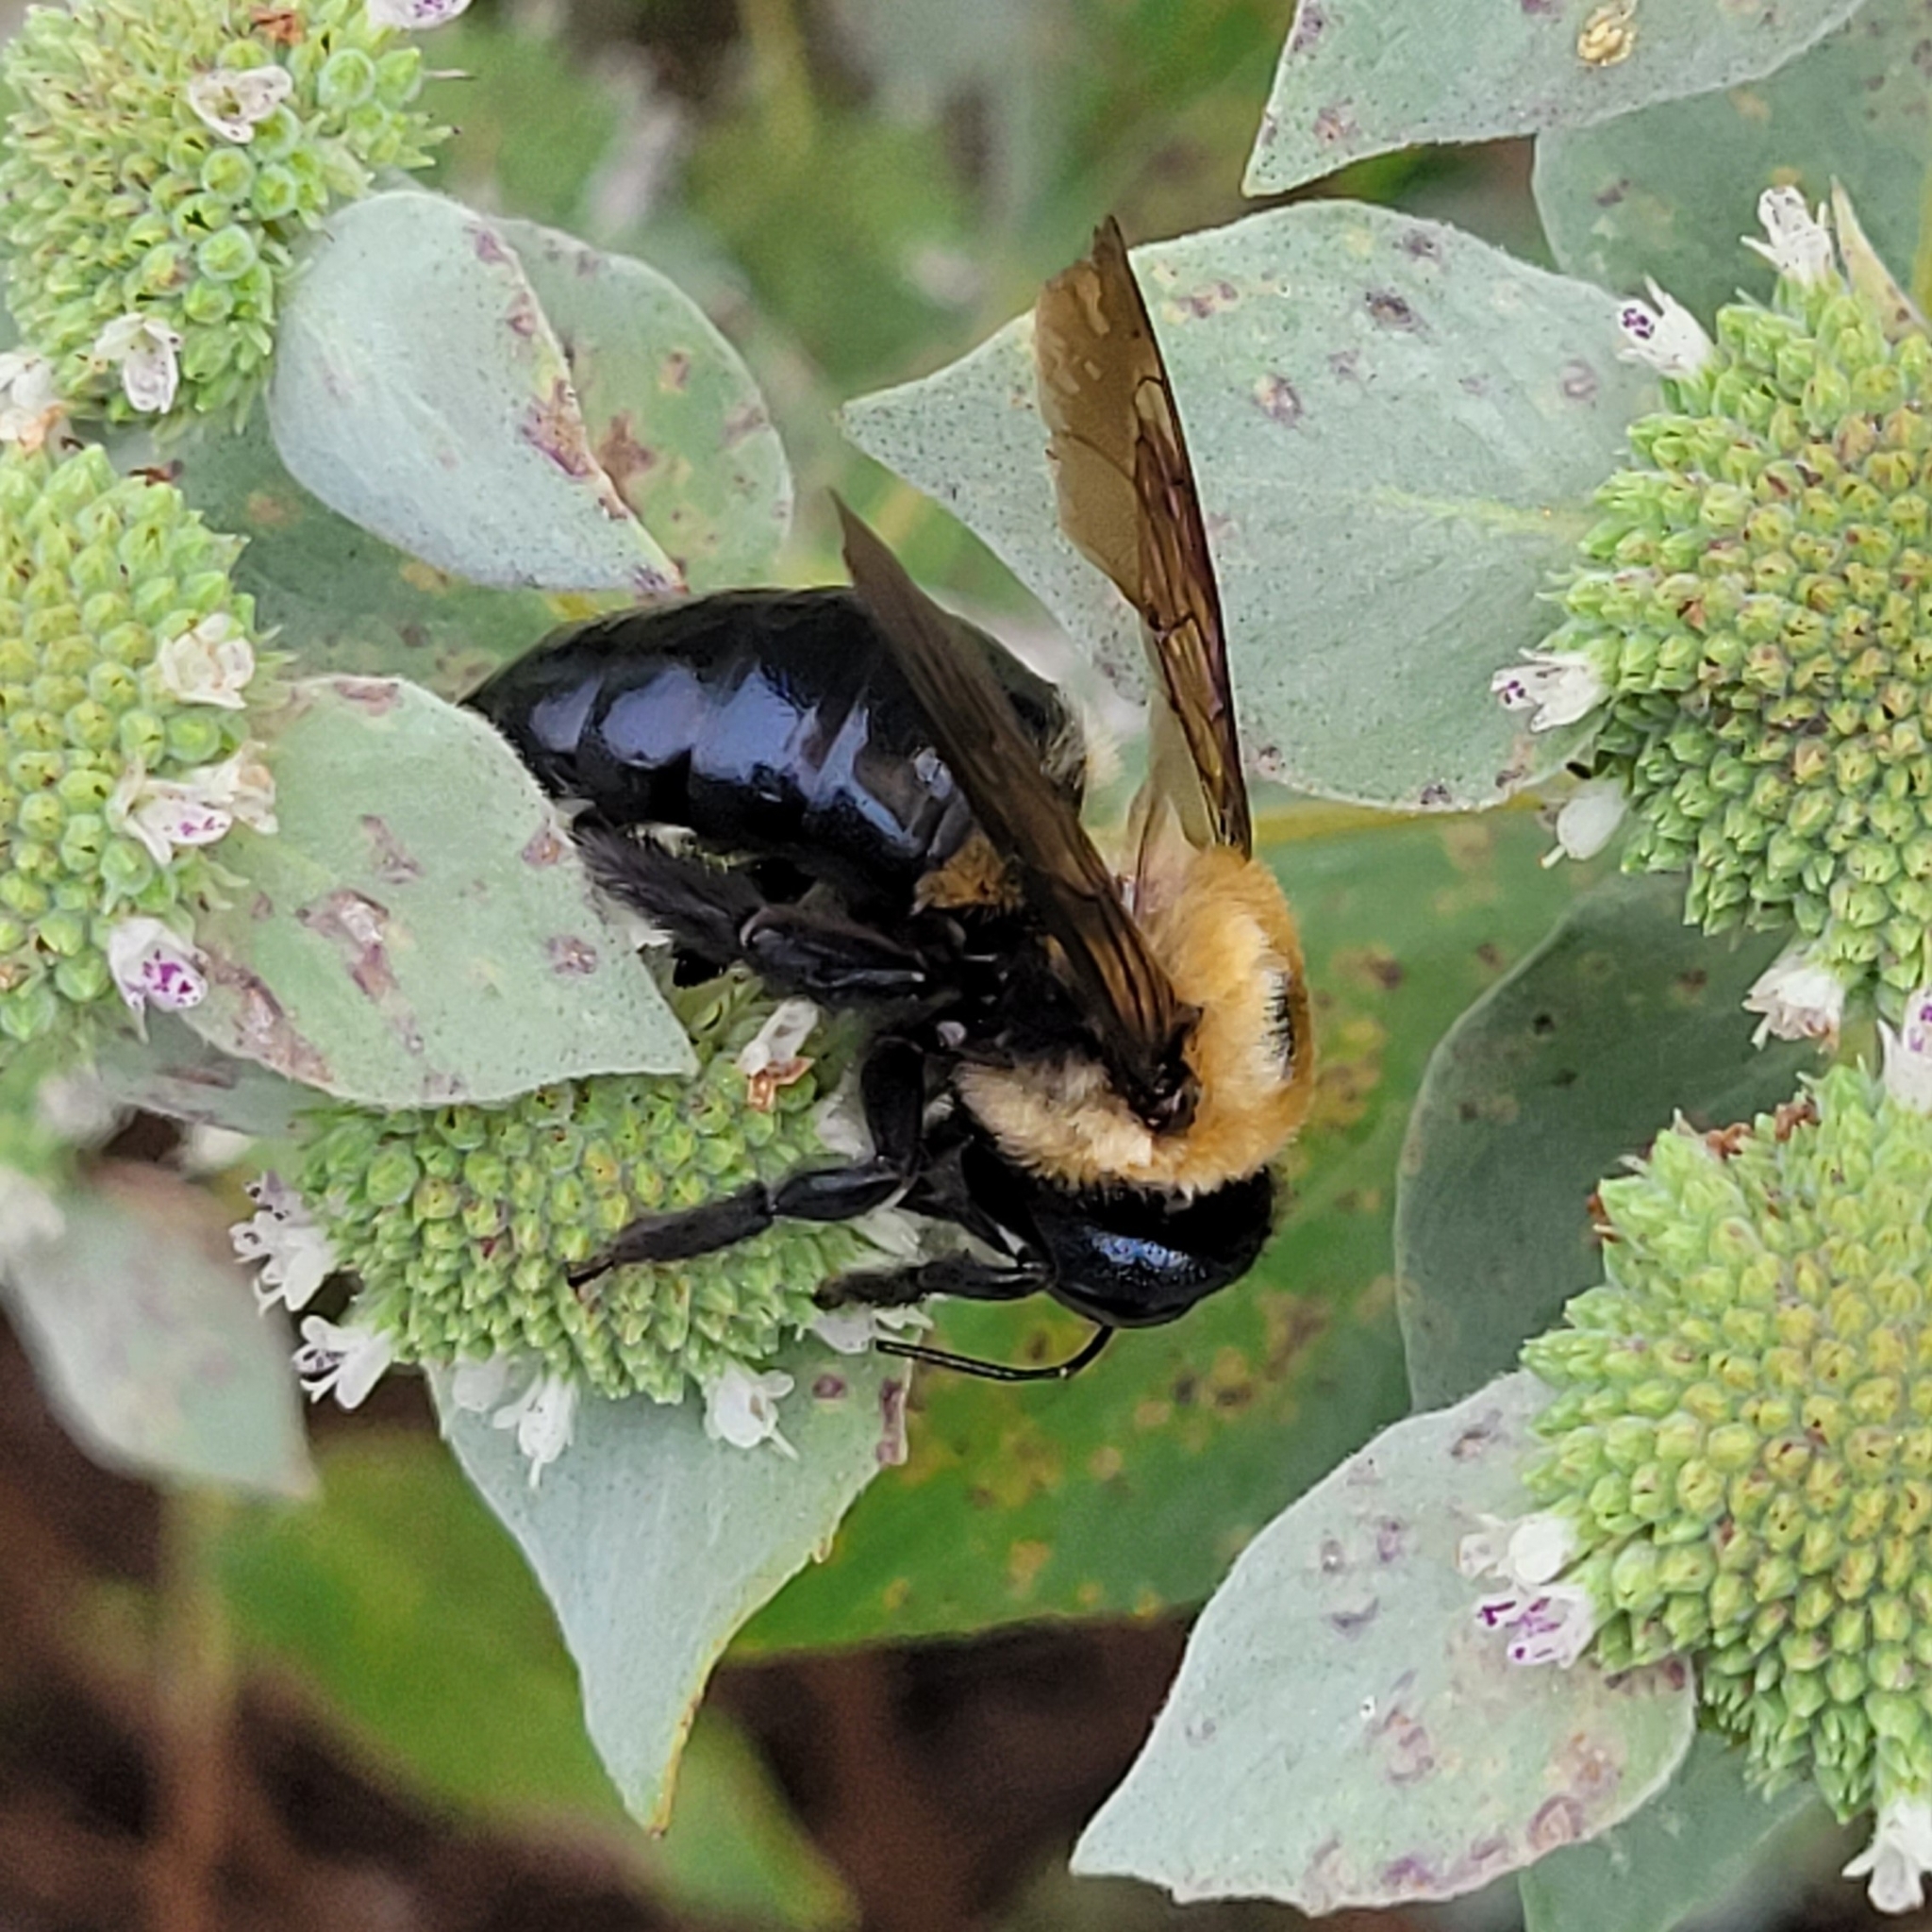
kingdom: Animalia
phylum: Arthropoda
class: Insecta
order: Hymenoptera
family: Apidae
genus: Xylocopa
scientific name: Xylocopa virginica
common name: Carpenter bee
